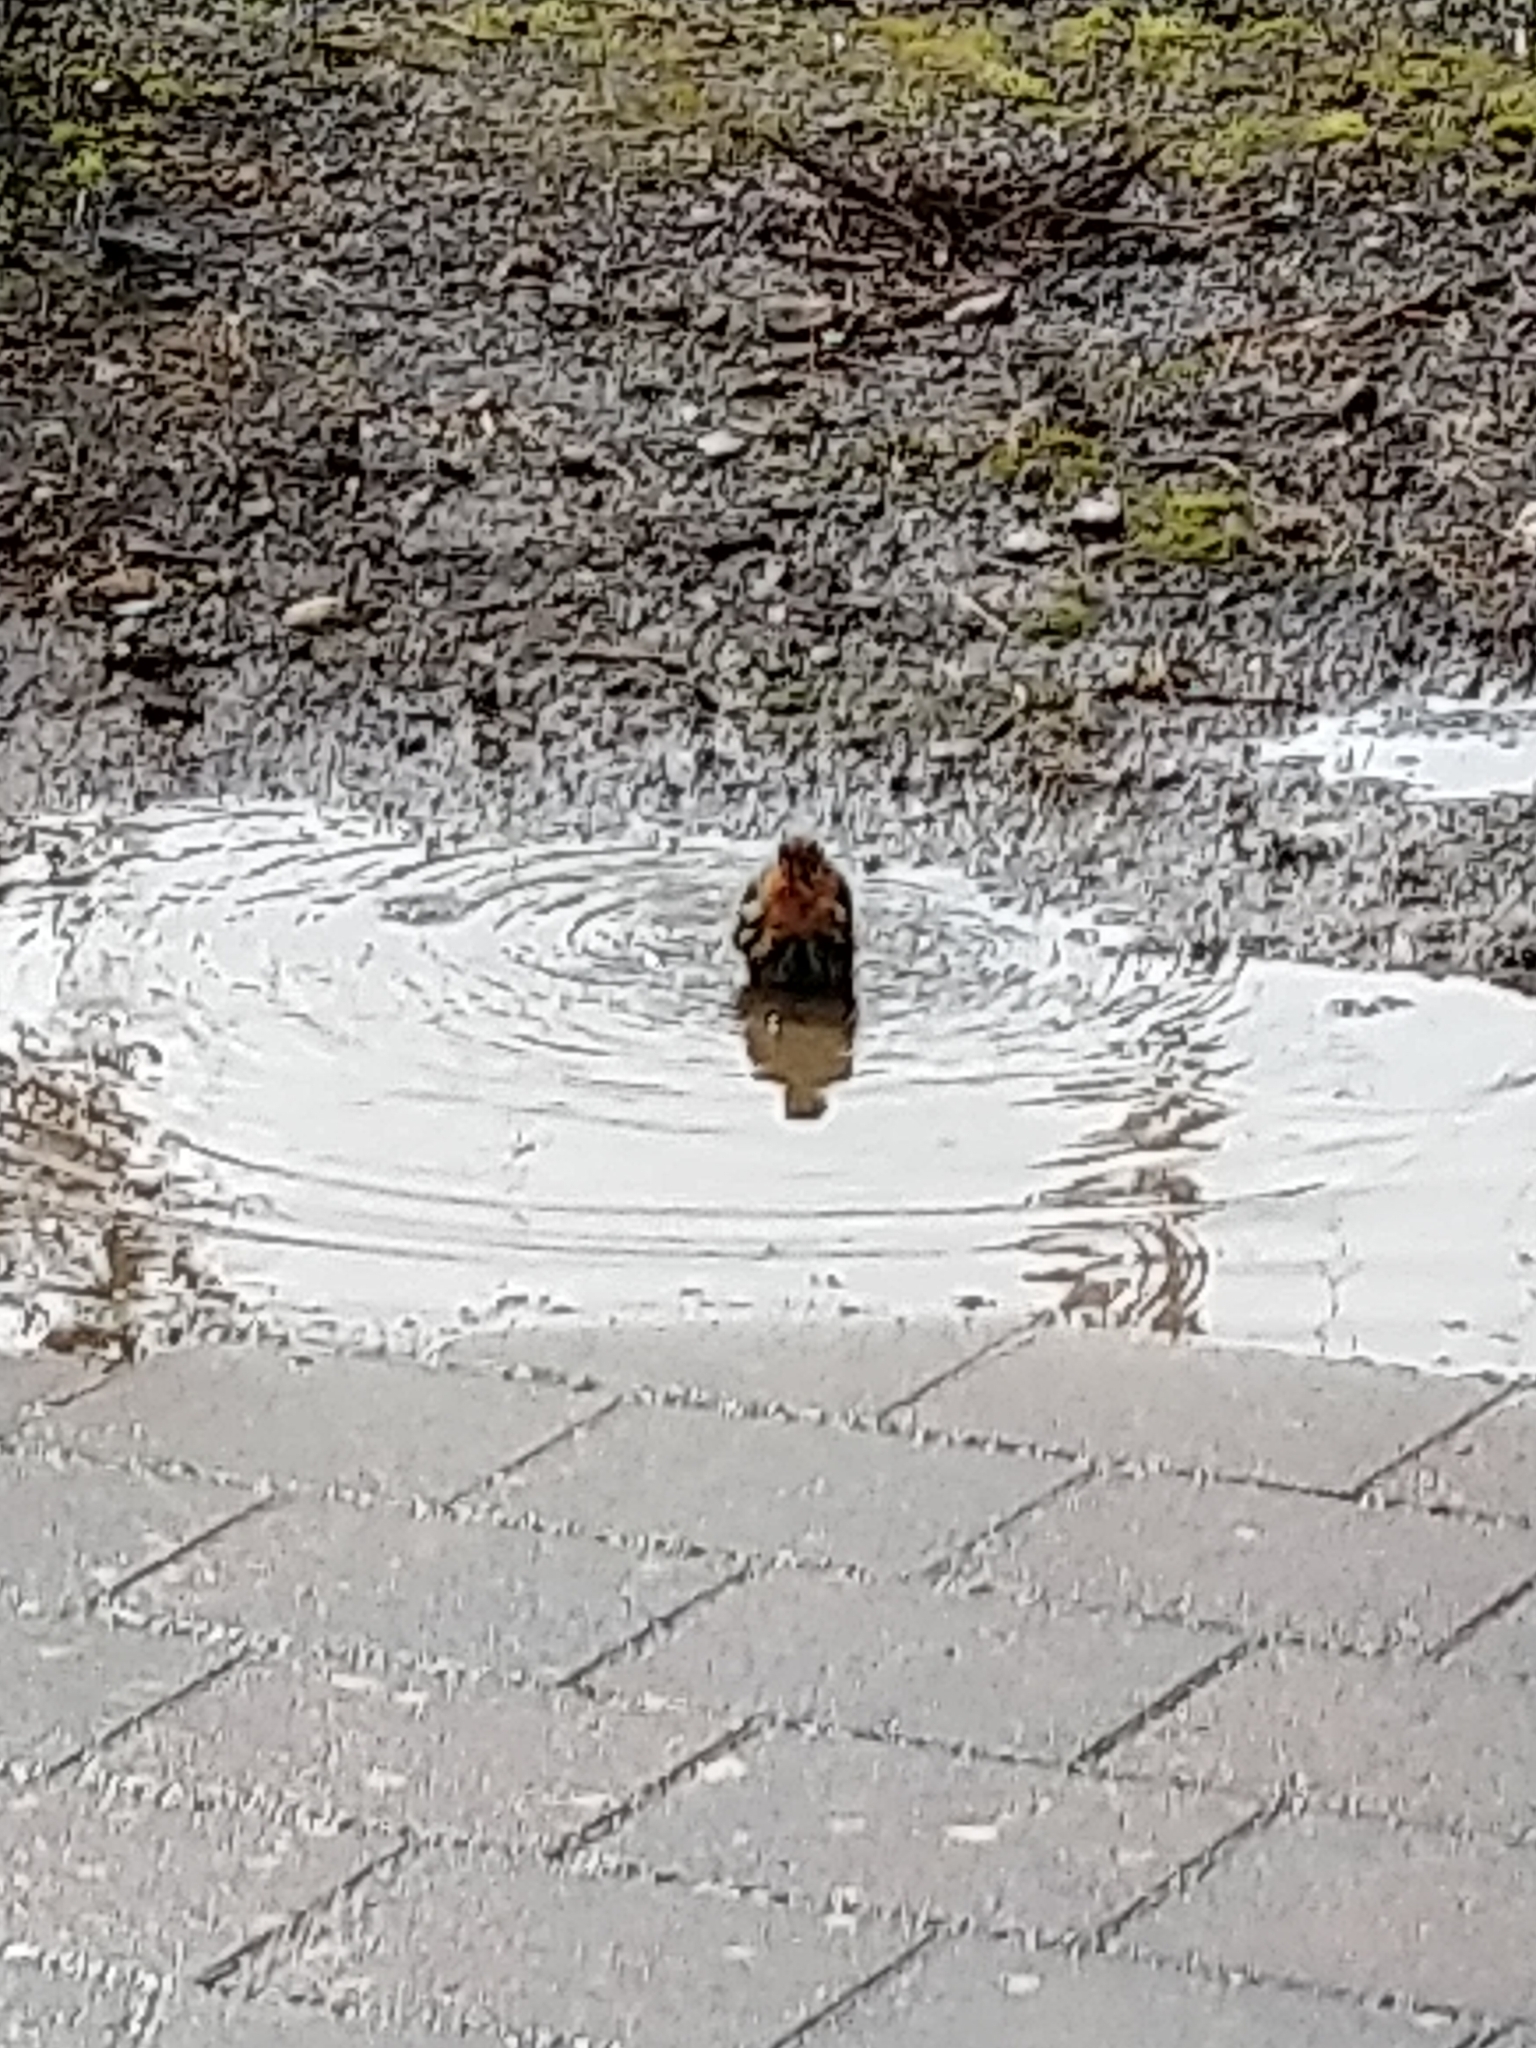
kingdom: Animalia
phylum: Chordata
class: Aves
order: Passeriformes
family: Muscicapidae
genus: Erithacus
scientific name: Erithacus rubecula
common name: European robin
